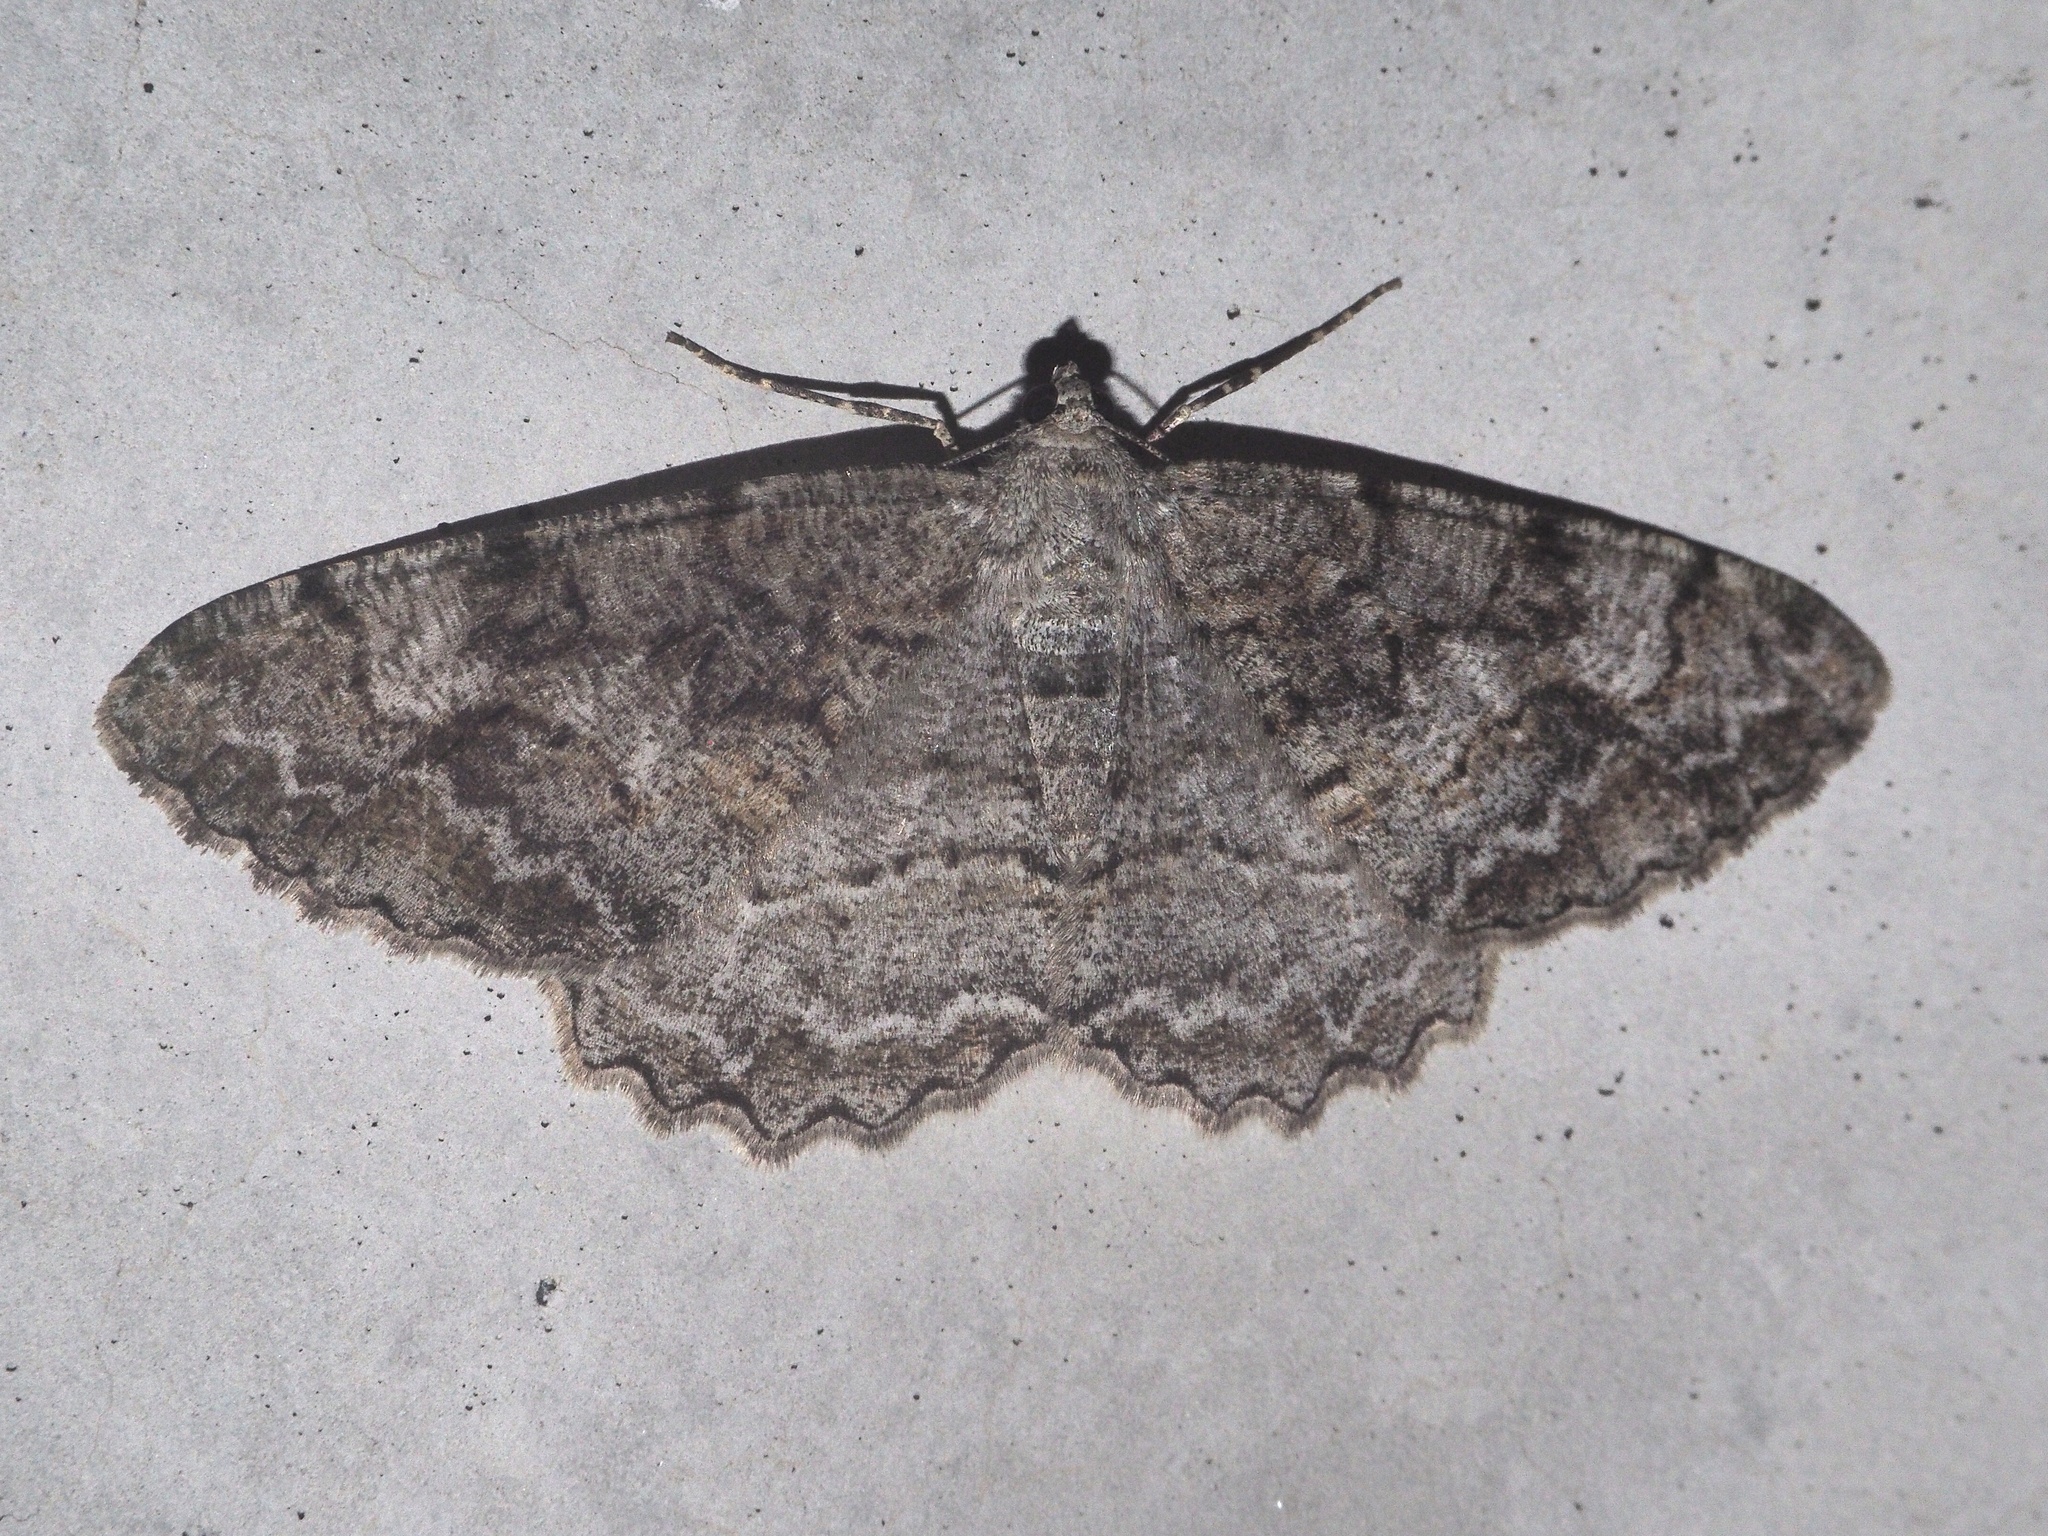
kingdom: Animalia
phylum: Arthropoda
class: Insecta
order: Lepidoptera
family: Geometridae
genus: Alcis
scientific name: Alcis repandata
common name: Mottled beauty
